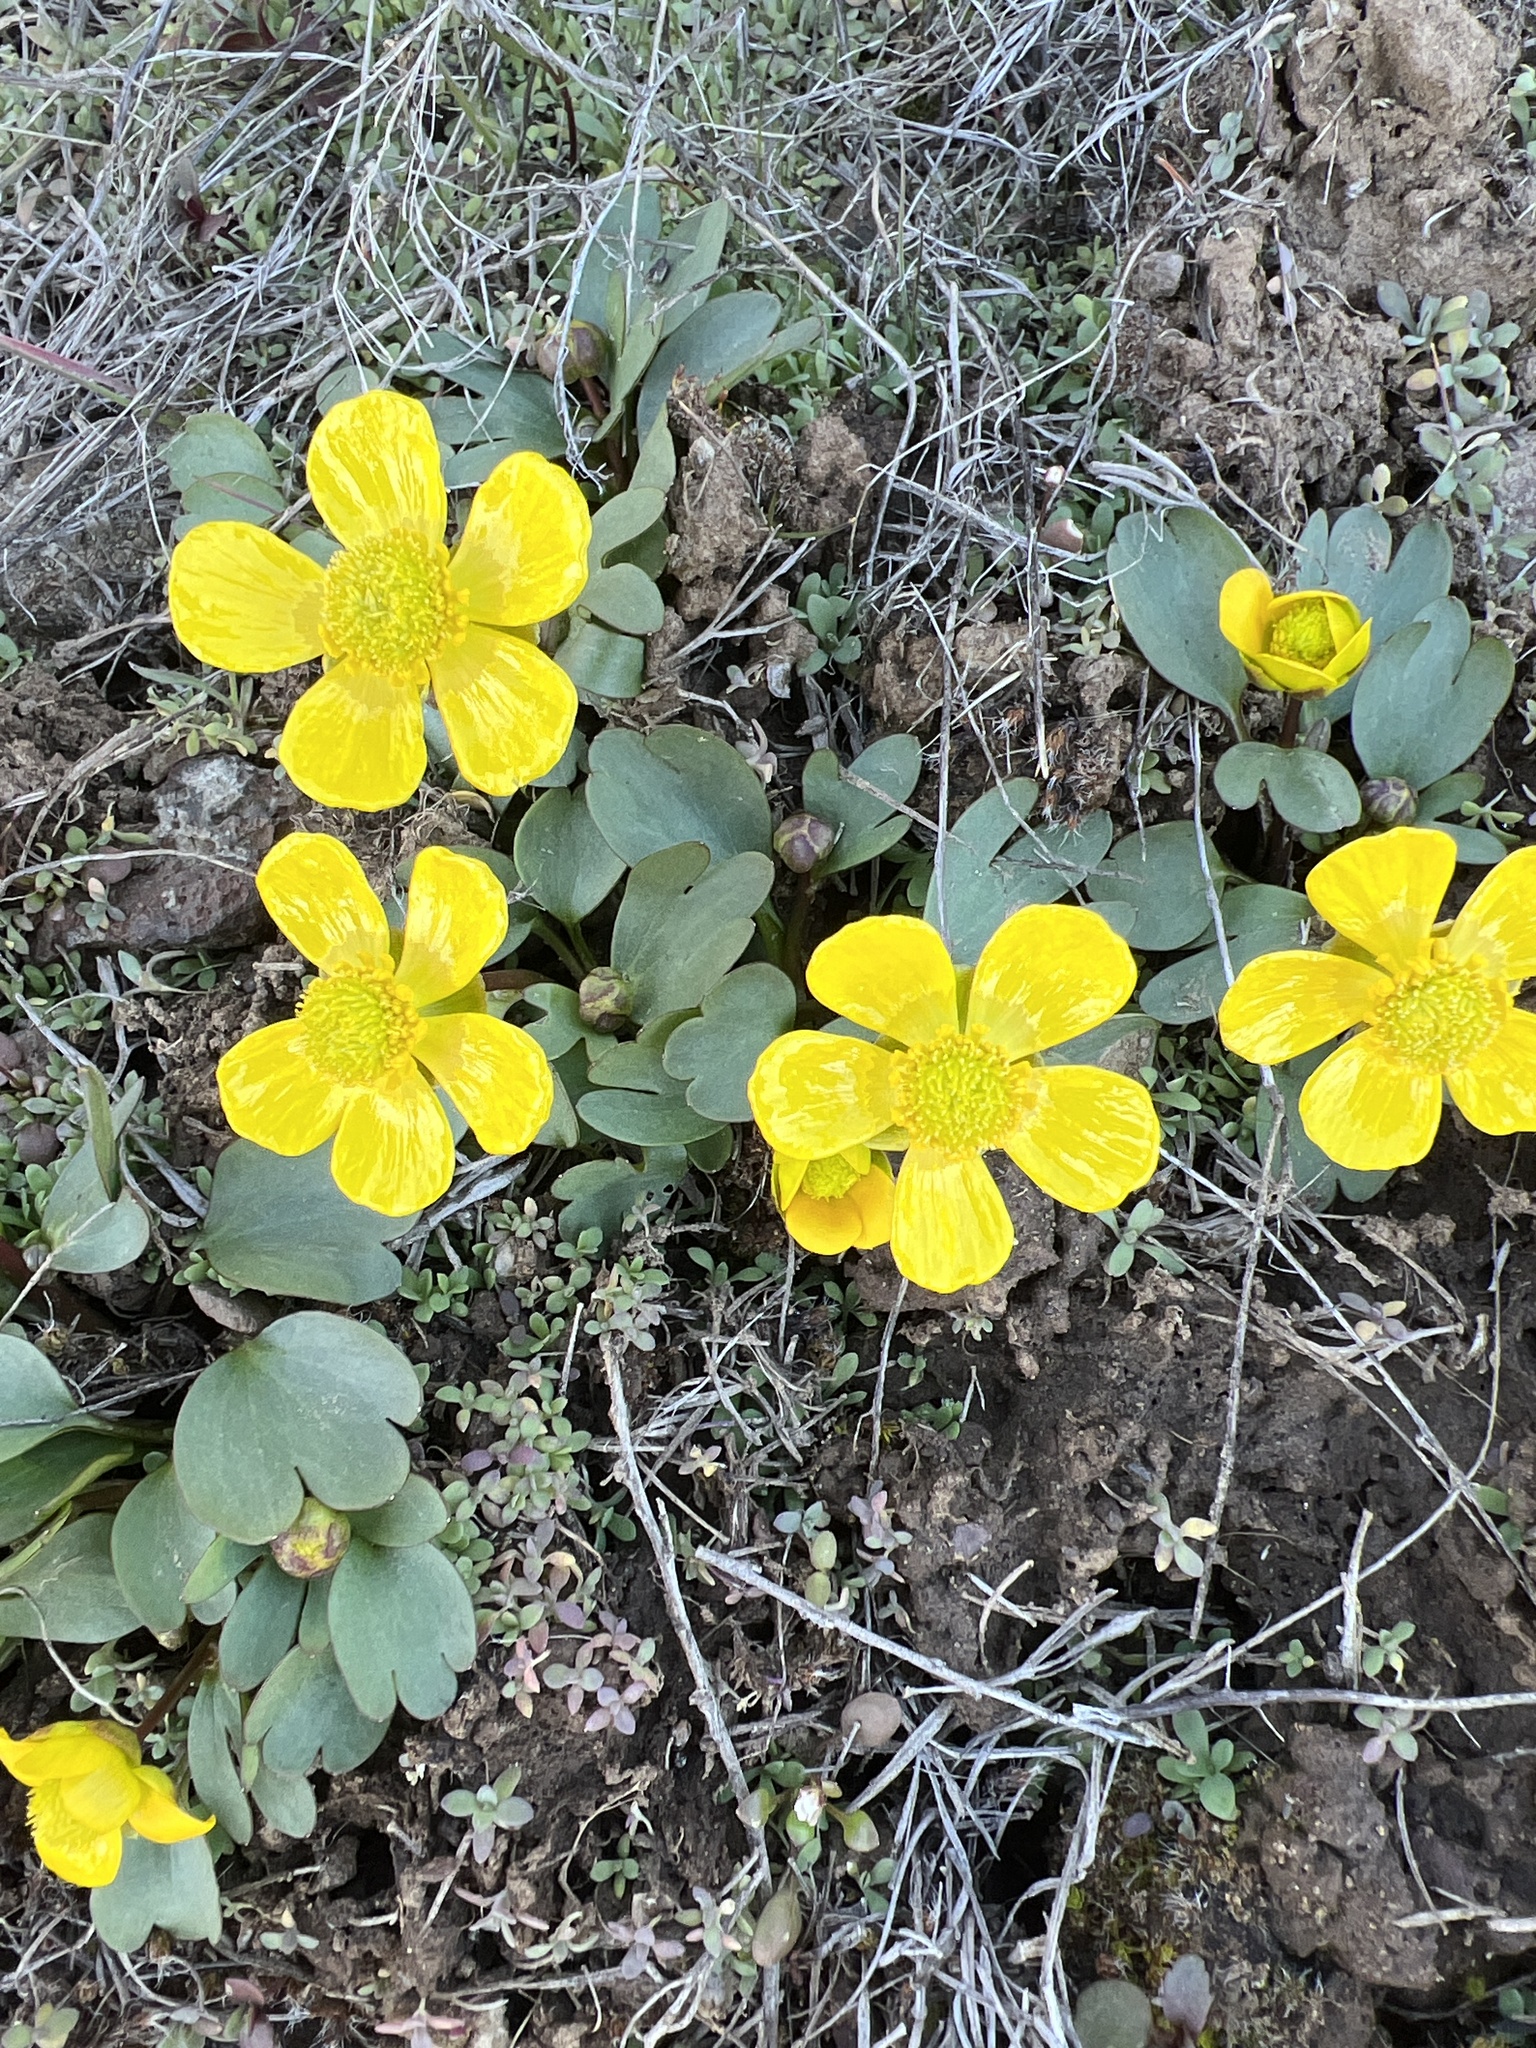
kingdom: Plantae
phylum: Tracheophyta
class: Magnoliopsida
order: Ranunculales
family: Ranunculaceae
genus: Ranunculus
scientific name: Ranunculus glaberrimus
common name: Sagebrush buttercup
